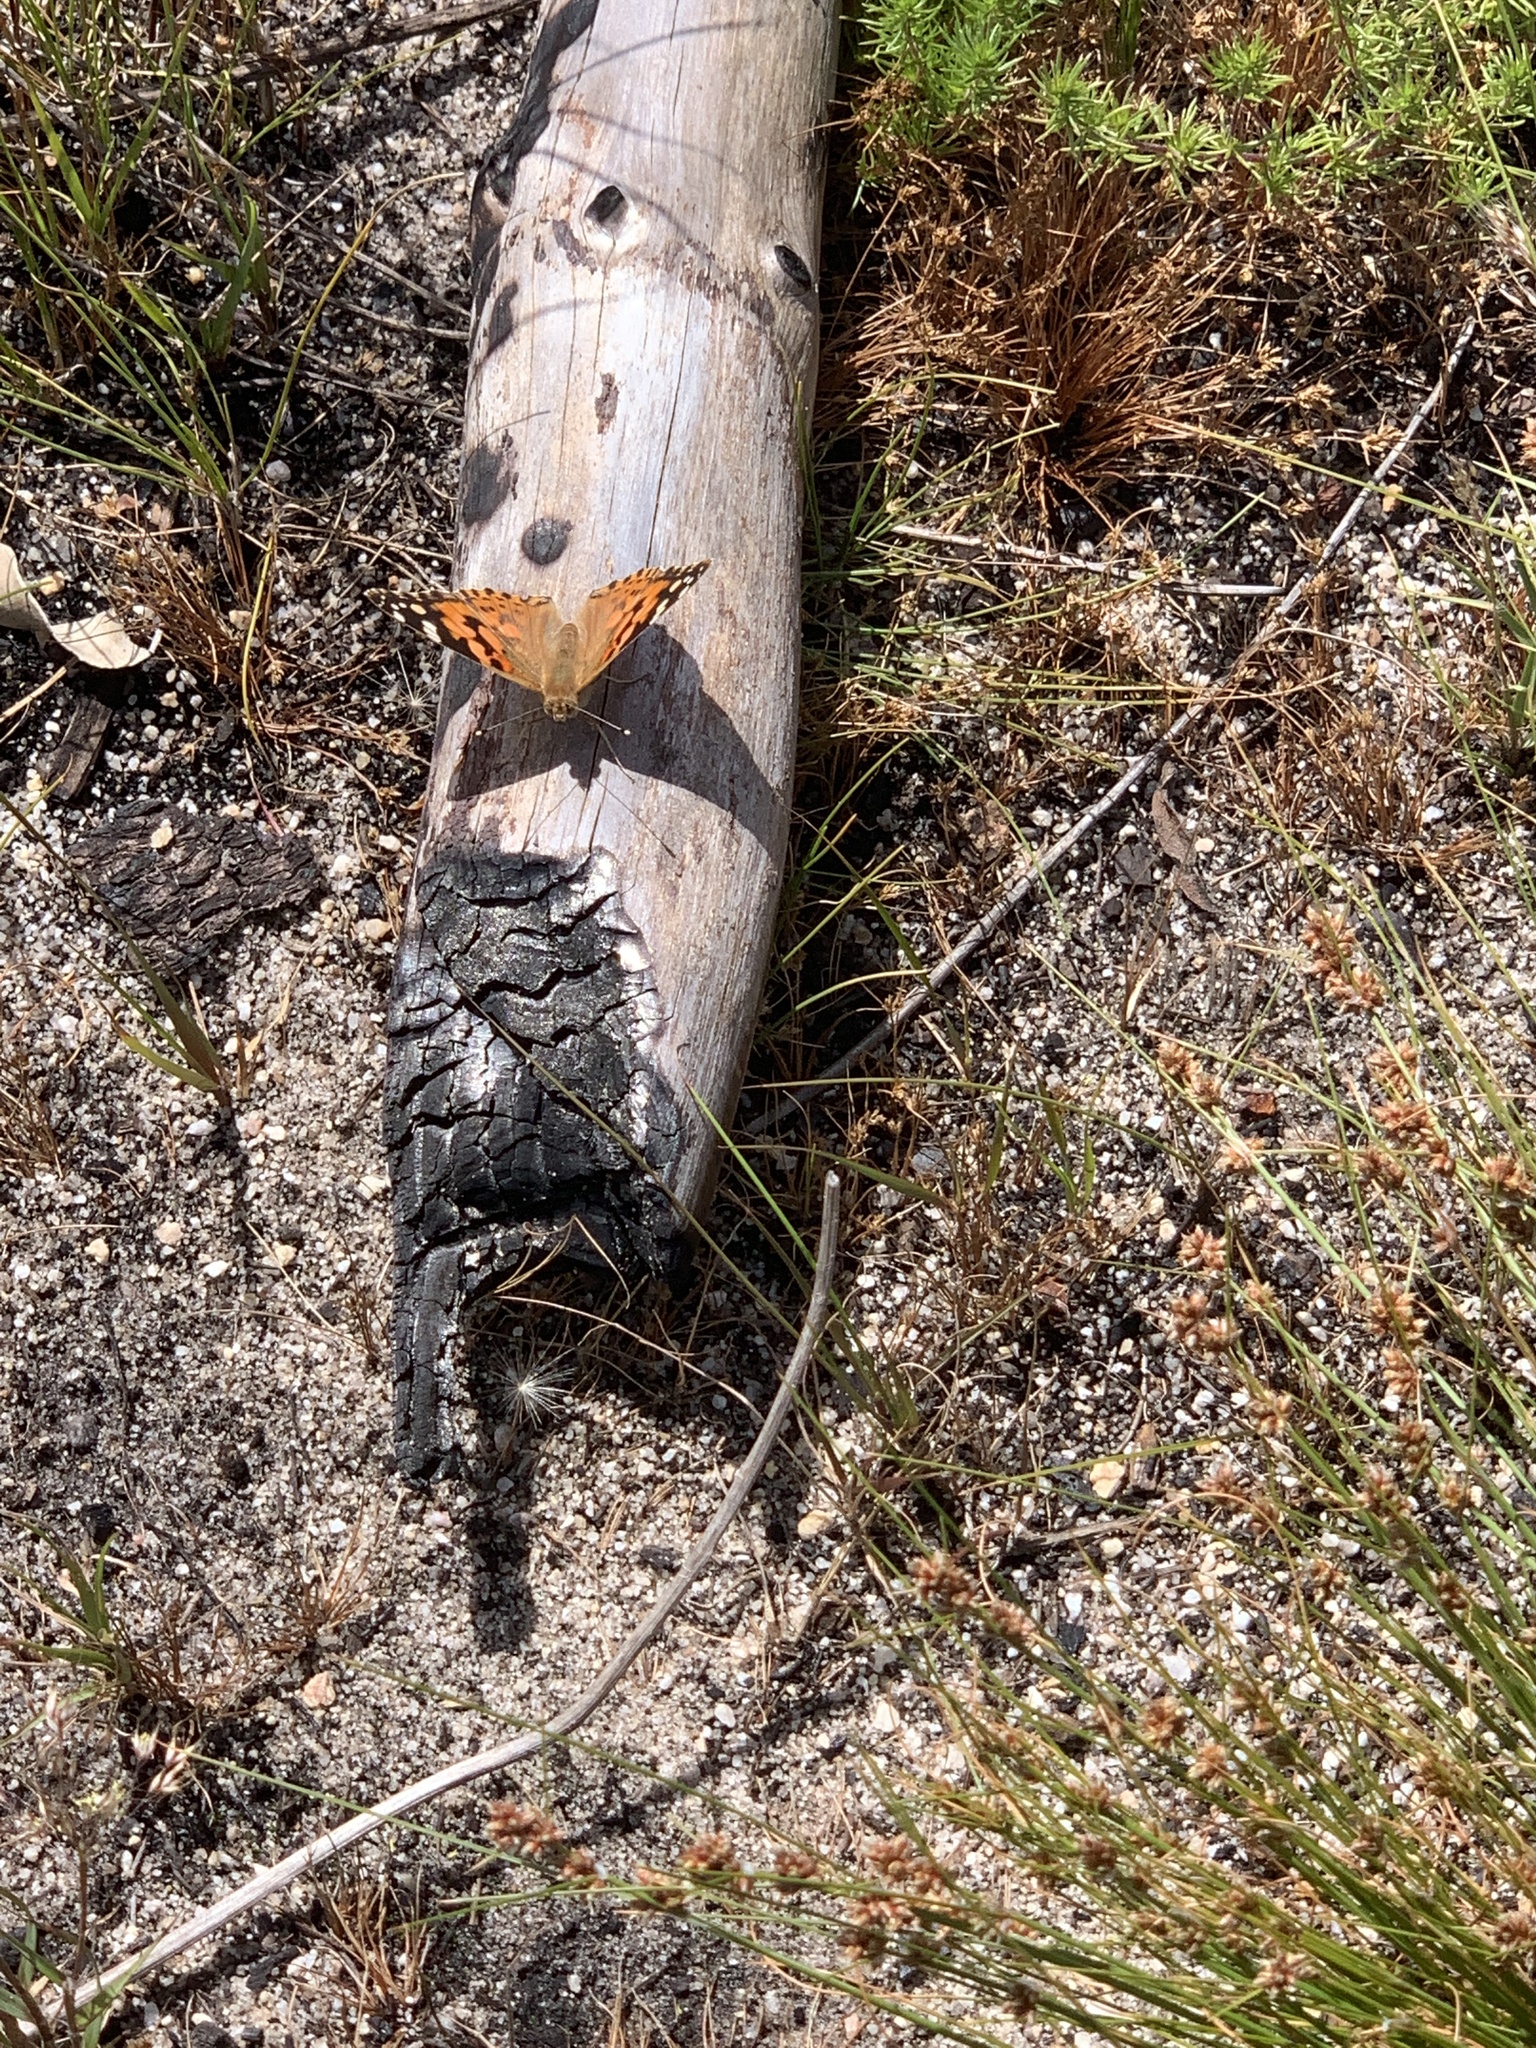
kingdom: Animalia
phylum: Arthropoda
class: Insecta
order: Lepidoptera
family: Nymphalidae
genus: Vanessa
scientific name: Vanessa cardui
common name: Painted lady
